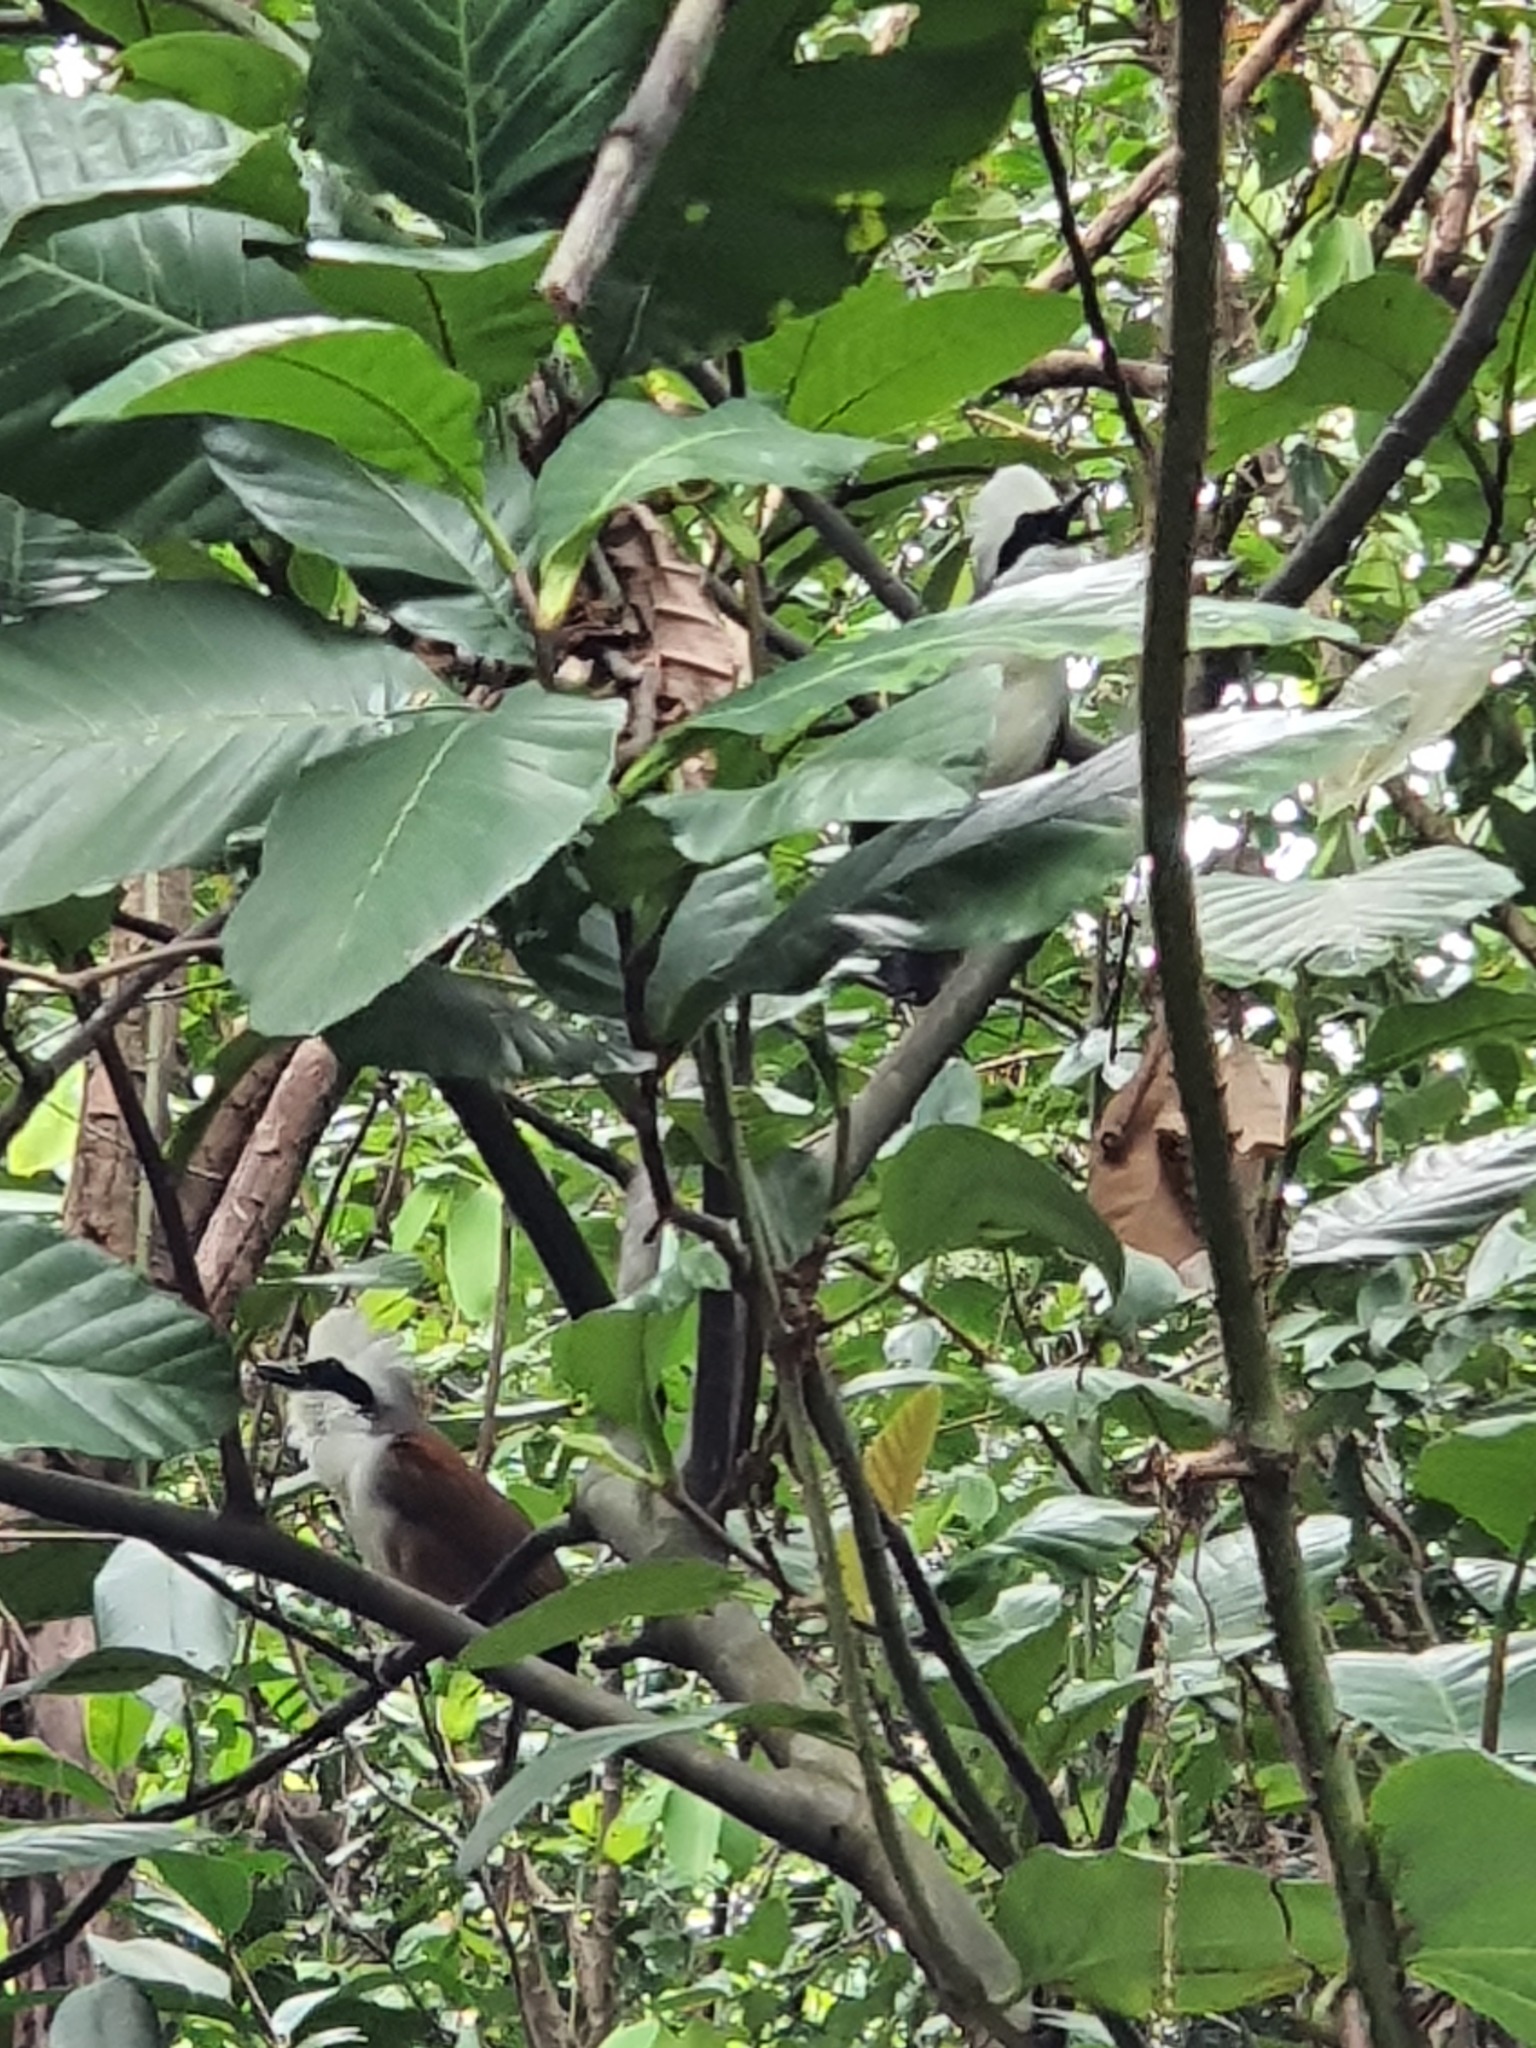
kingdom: Animalia
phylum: Chordata
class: Aves
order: Passeriformes
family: Leiothrichidae
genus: Garrulax
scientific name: Garrulax leucolophus
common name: White-crested laughingthrush
